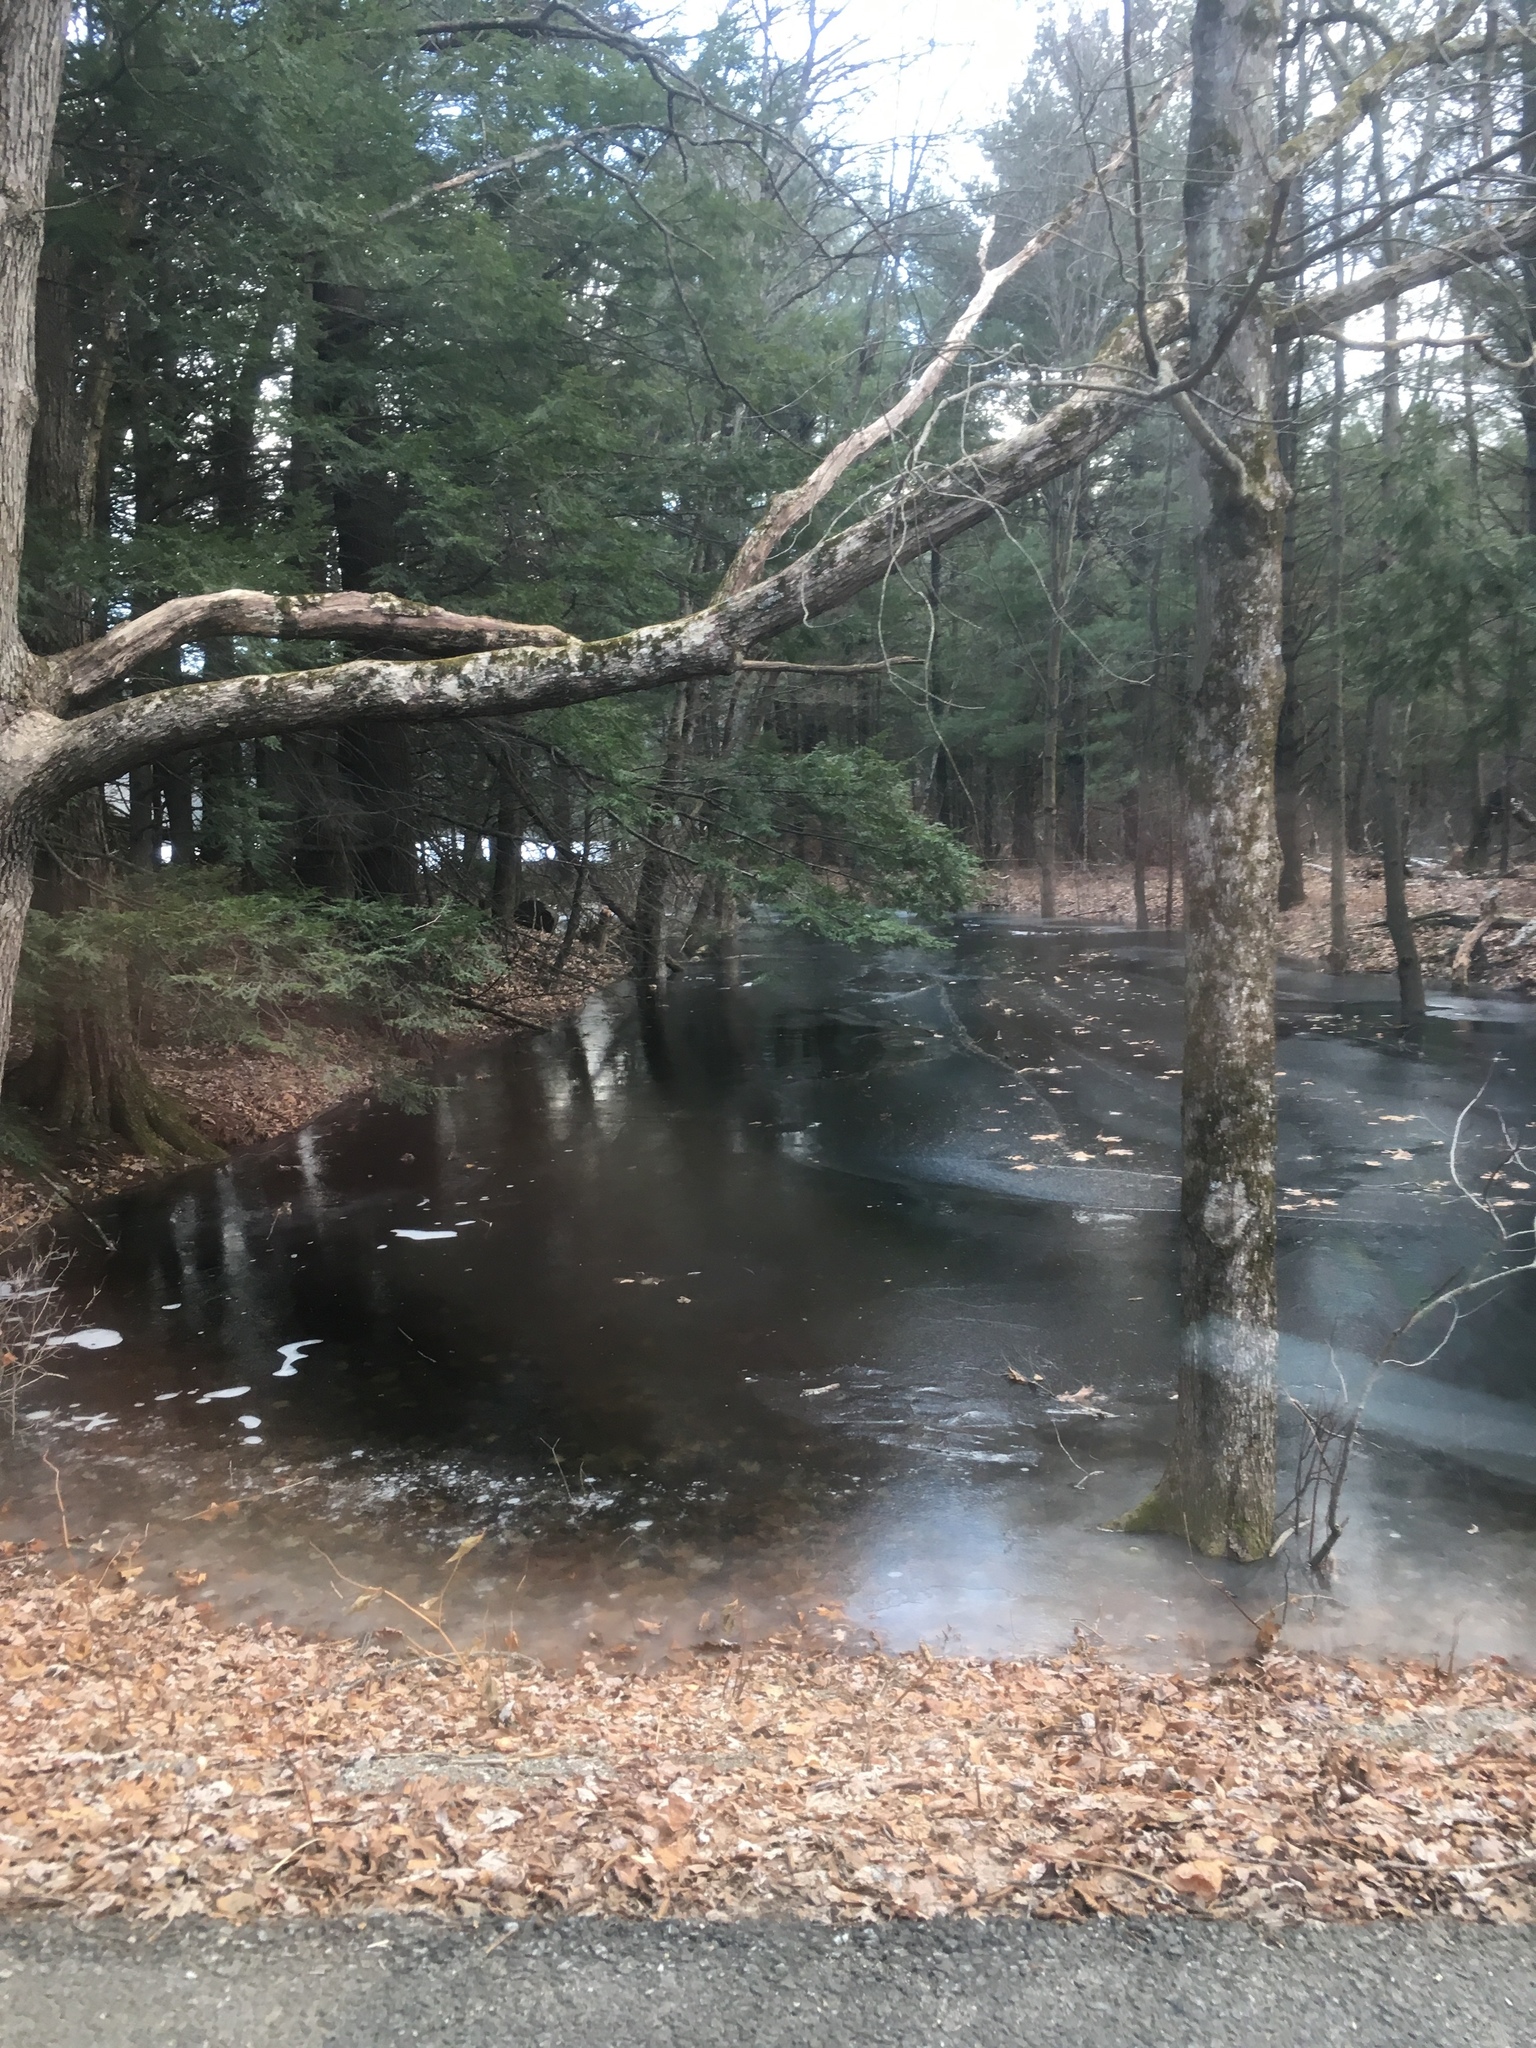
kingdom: Plantae
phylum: Tracheophyta
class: Pinopsida
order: Pinales
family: Pinaceae
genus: Tsuga
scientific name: Tsuga canadensis
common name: Eastern hemlock
